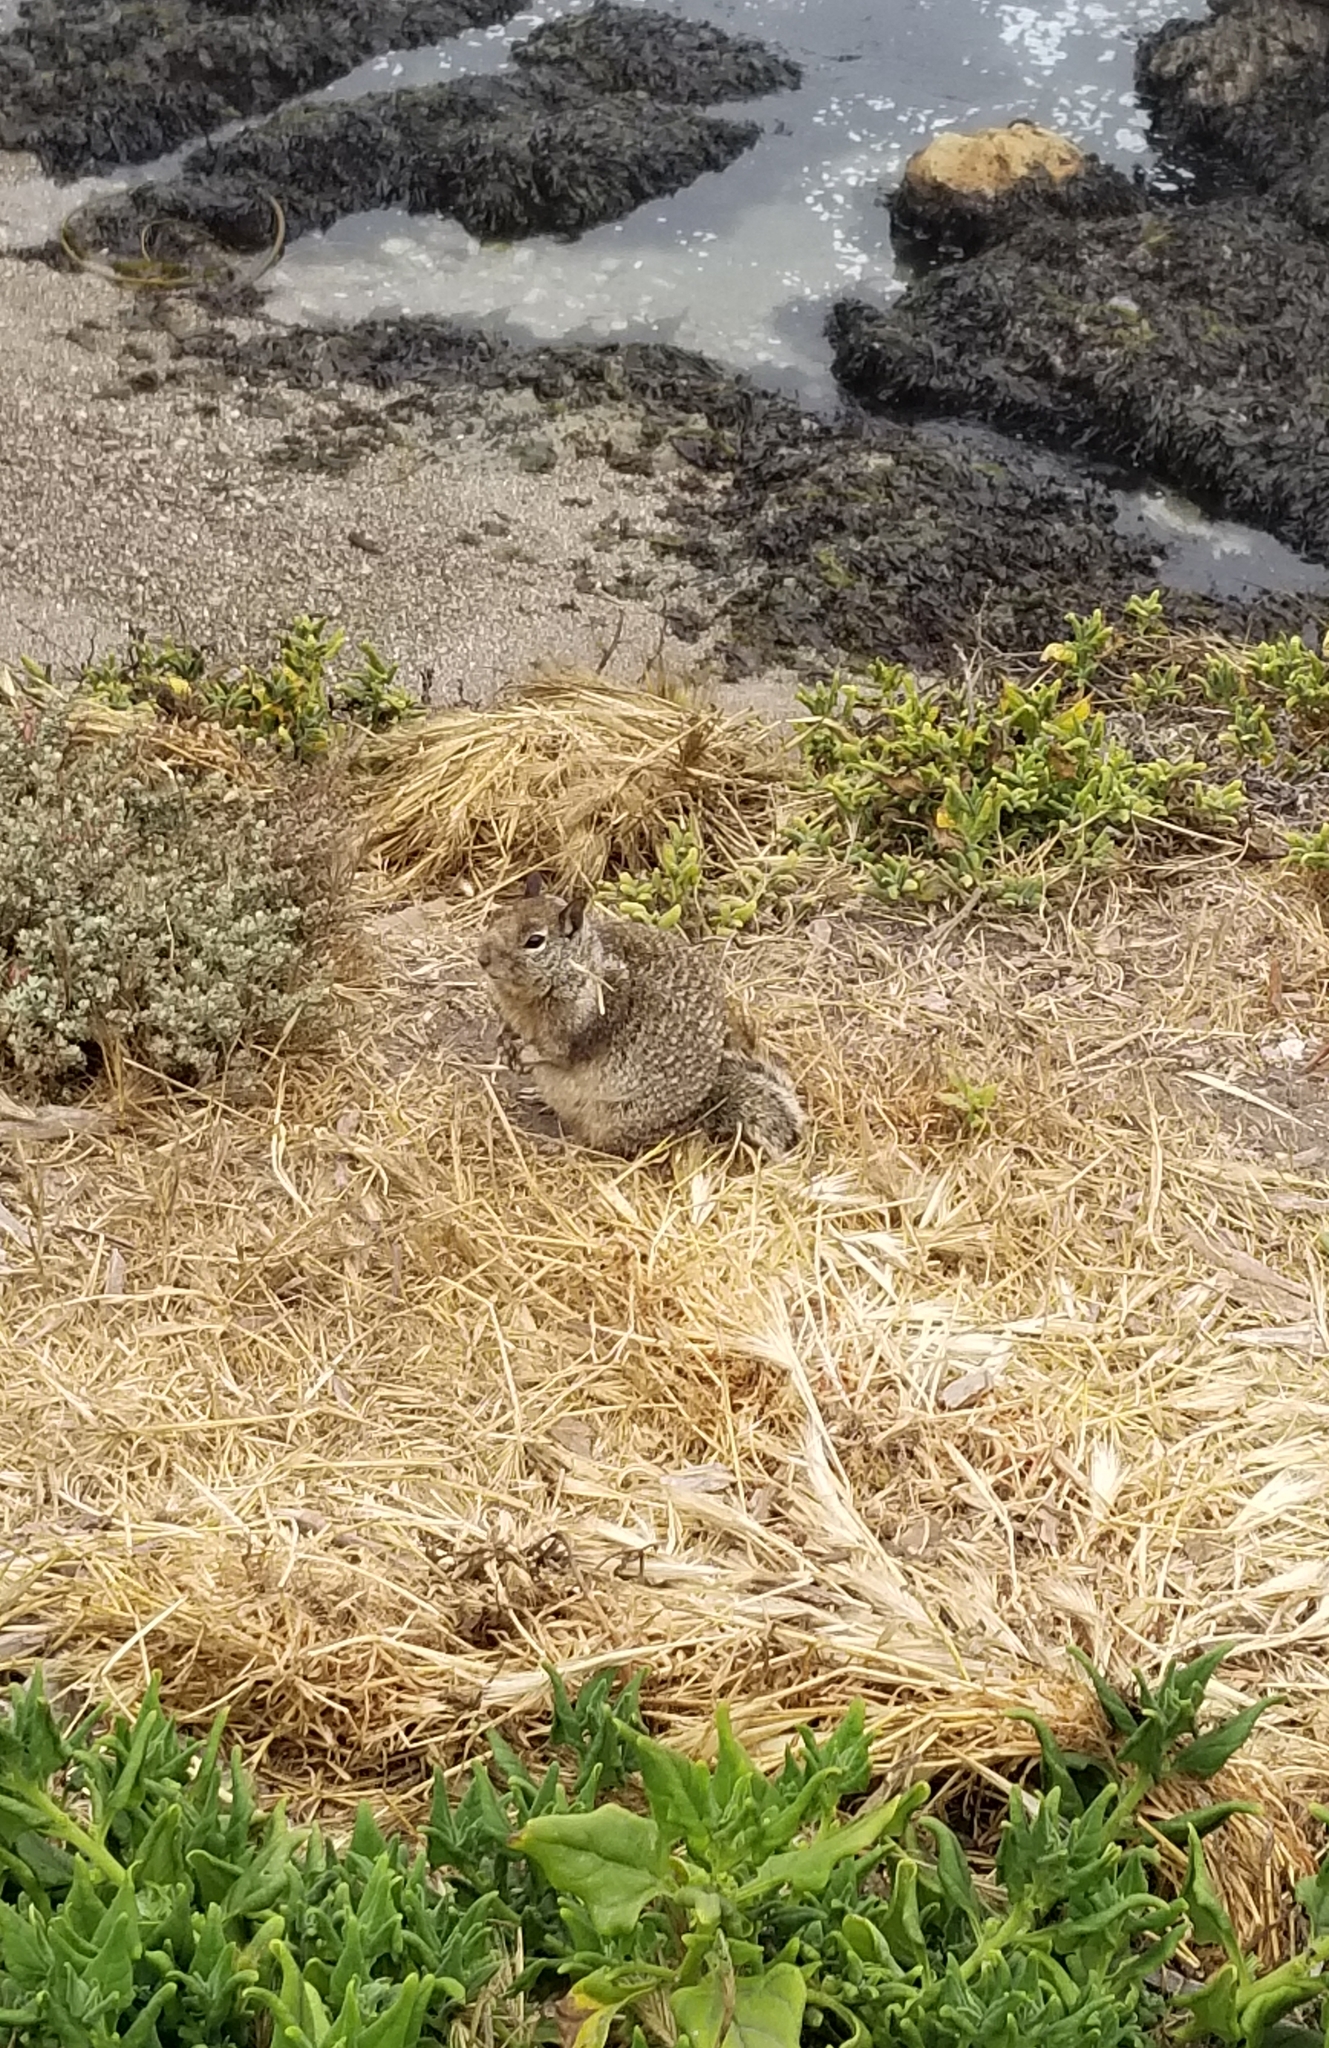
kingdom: Animalia
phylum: Chordata
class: Mammalia
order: Rodentia
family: Sciuridae
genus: Otospermophilus
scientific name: Otospermophilus beecheyi
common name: California ground squirrel
